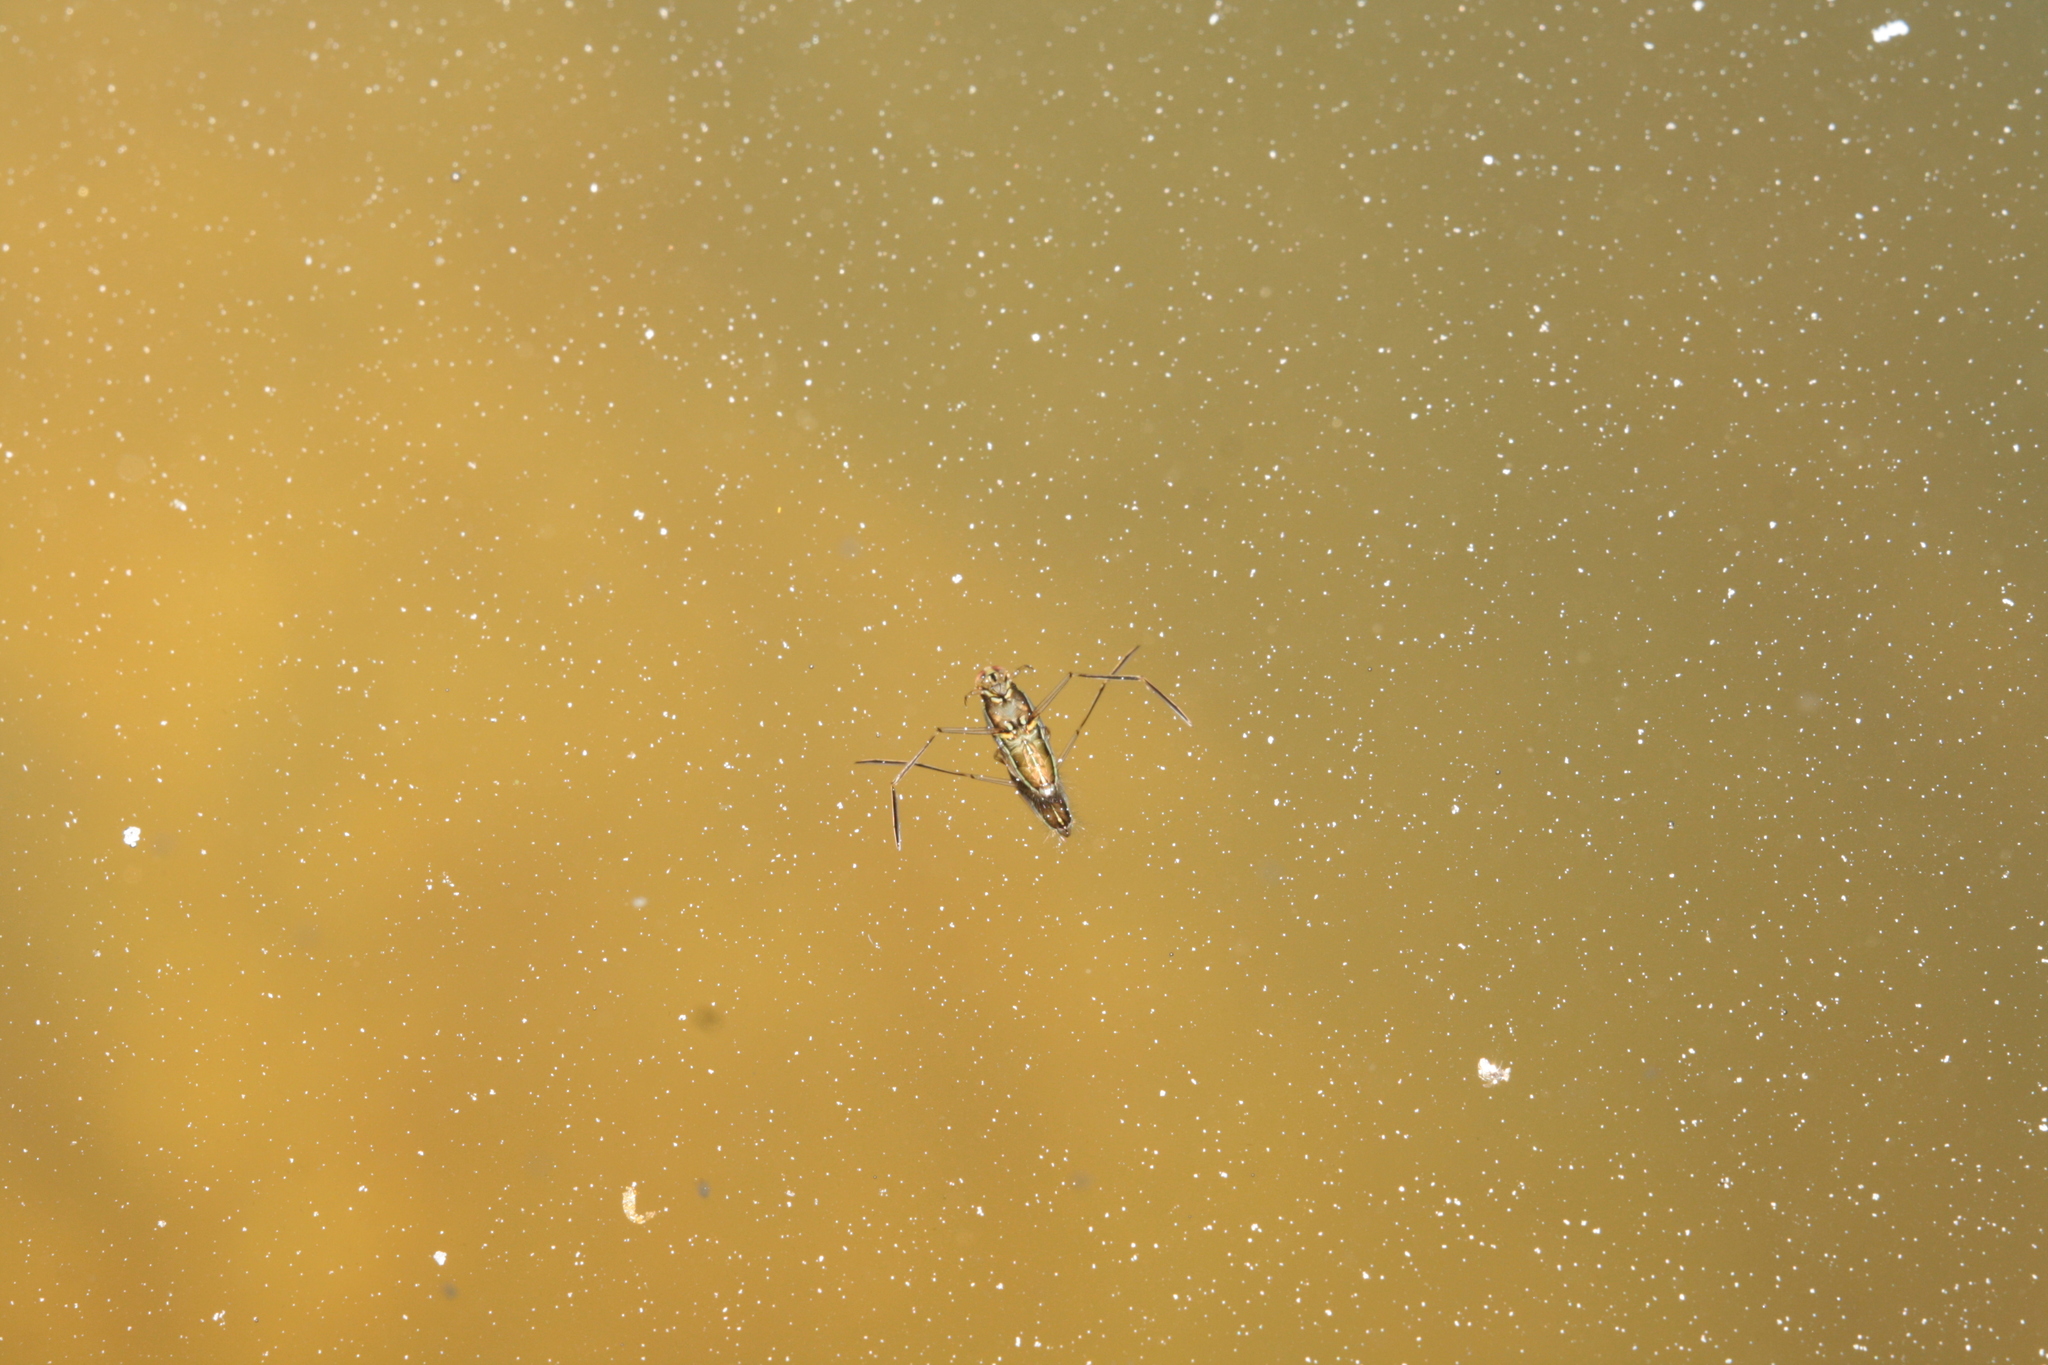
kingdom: Animalia
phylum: Arthropoda
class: Insecta
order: Hemiptera
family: Notonectidae
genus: Nychia
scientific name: Nychia marshalli
